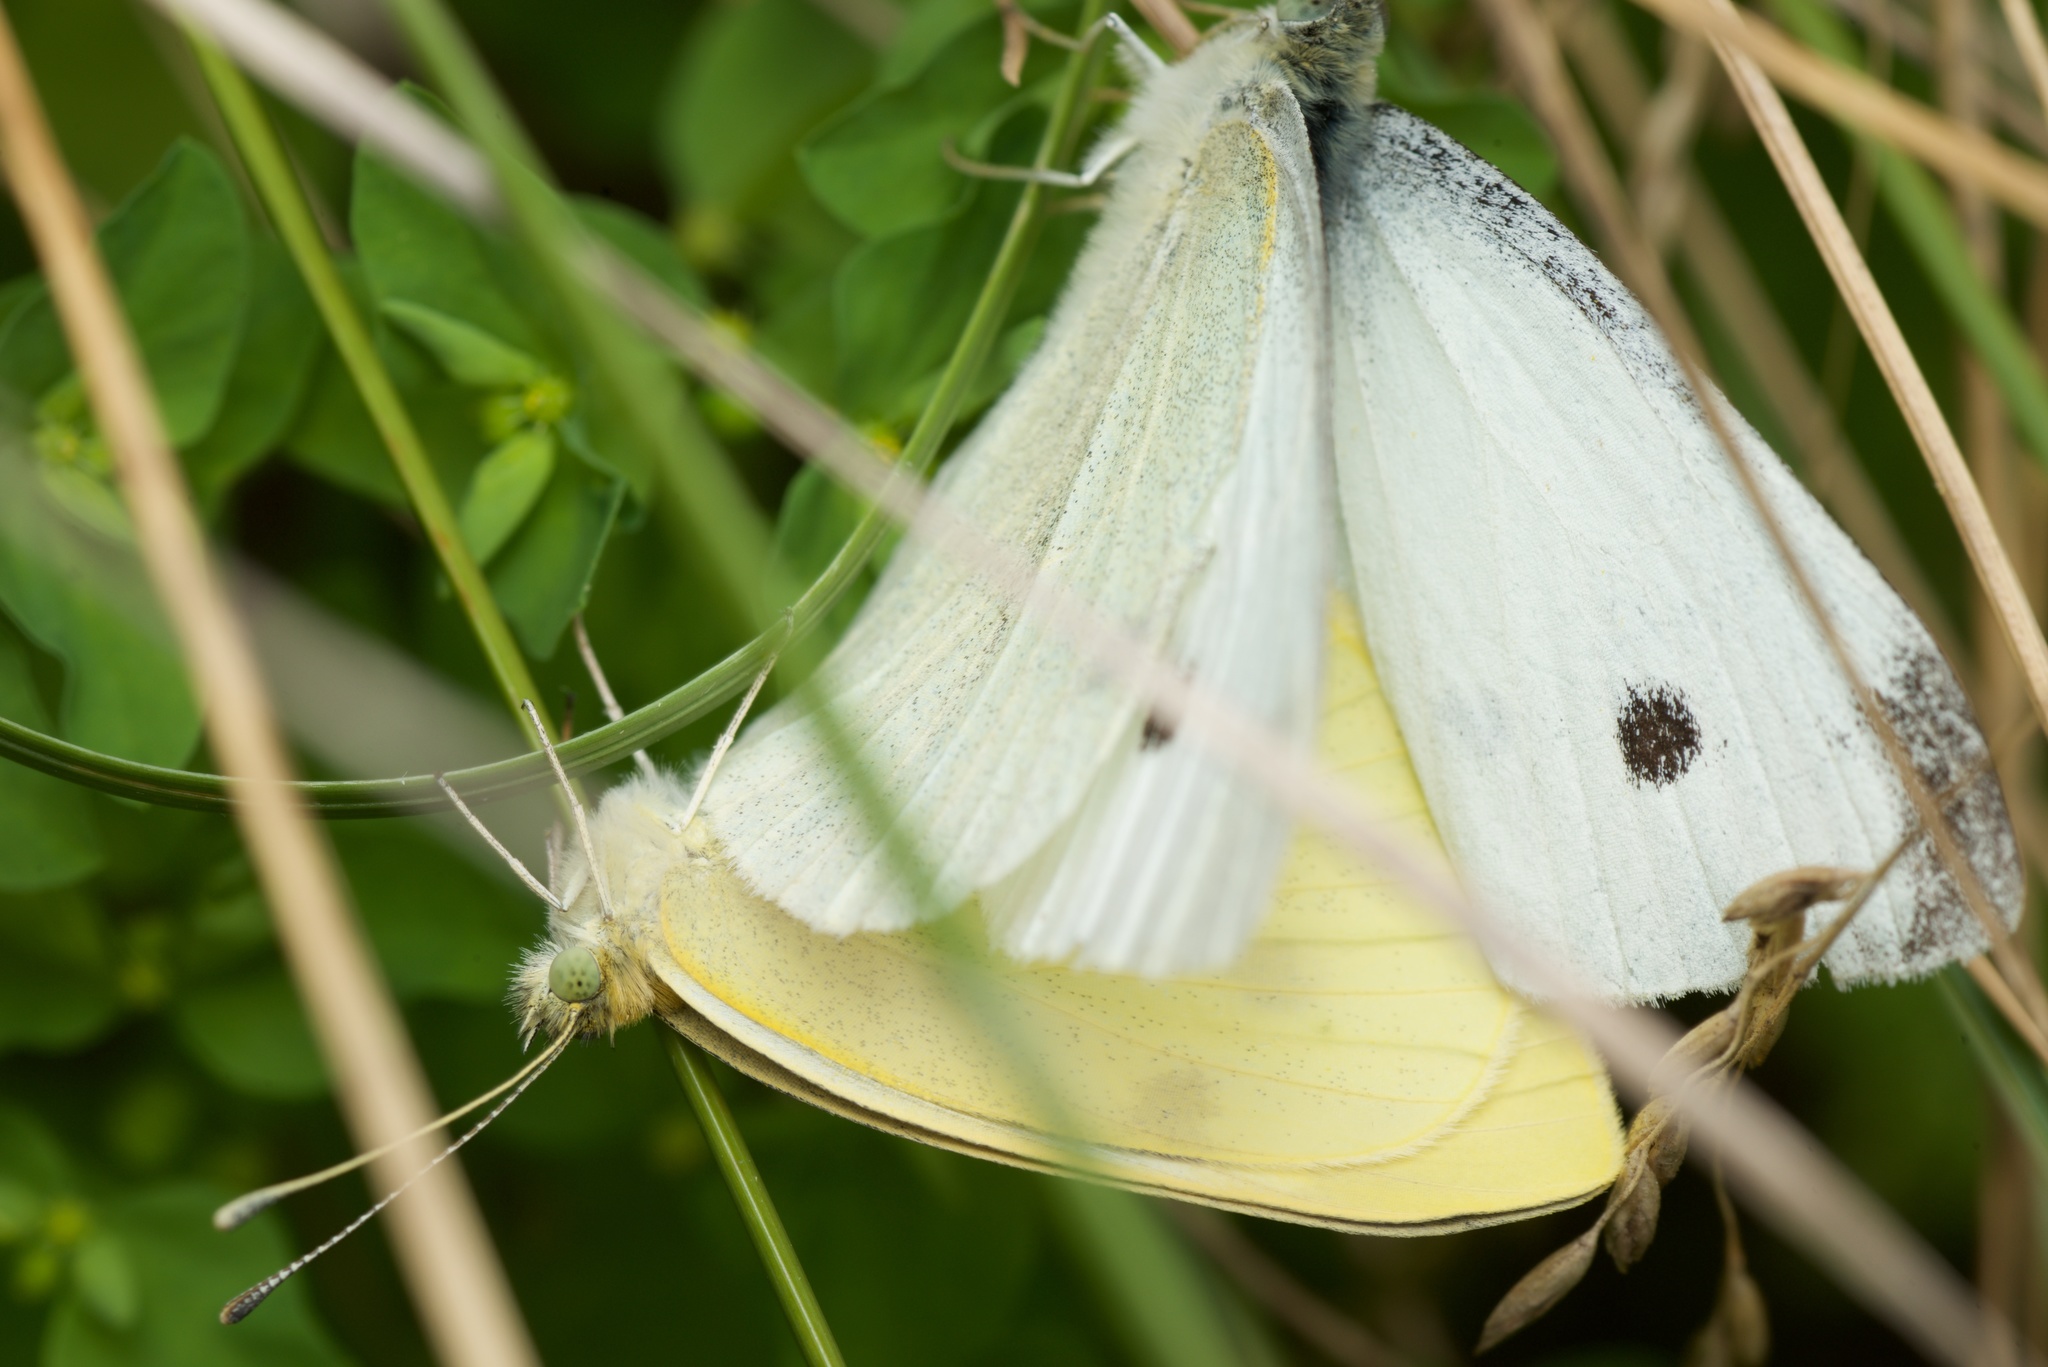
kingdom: Animalia
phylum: Arthropoda
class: Insecta
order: Lepidoptera
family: Pieridae
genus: Pieris
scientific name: Pieris rapae
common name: Small white
